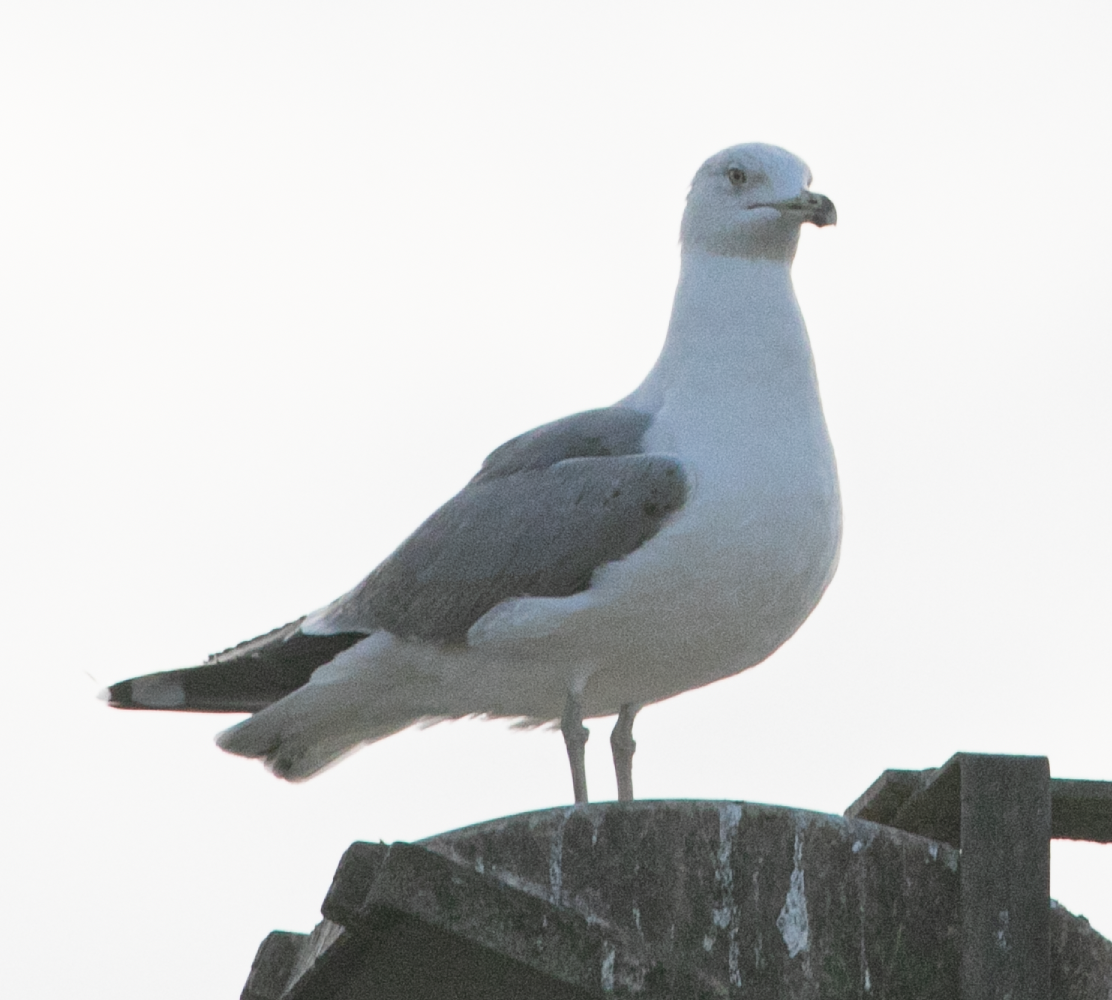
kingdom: Animalia
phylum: Chordata
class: Aves
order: Charadriiformes
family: Laridae
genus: Larus
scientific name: Larus michahellis
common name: Yellow-legged gull
